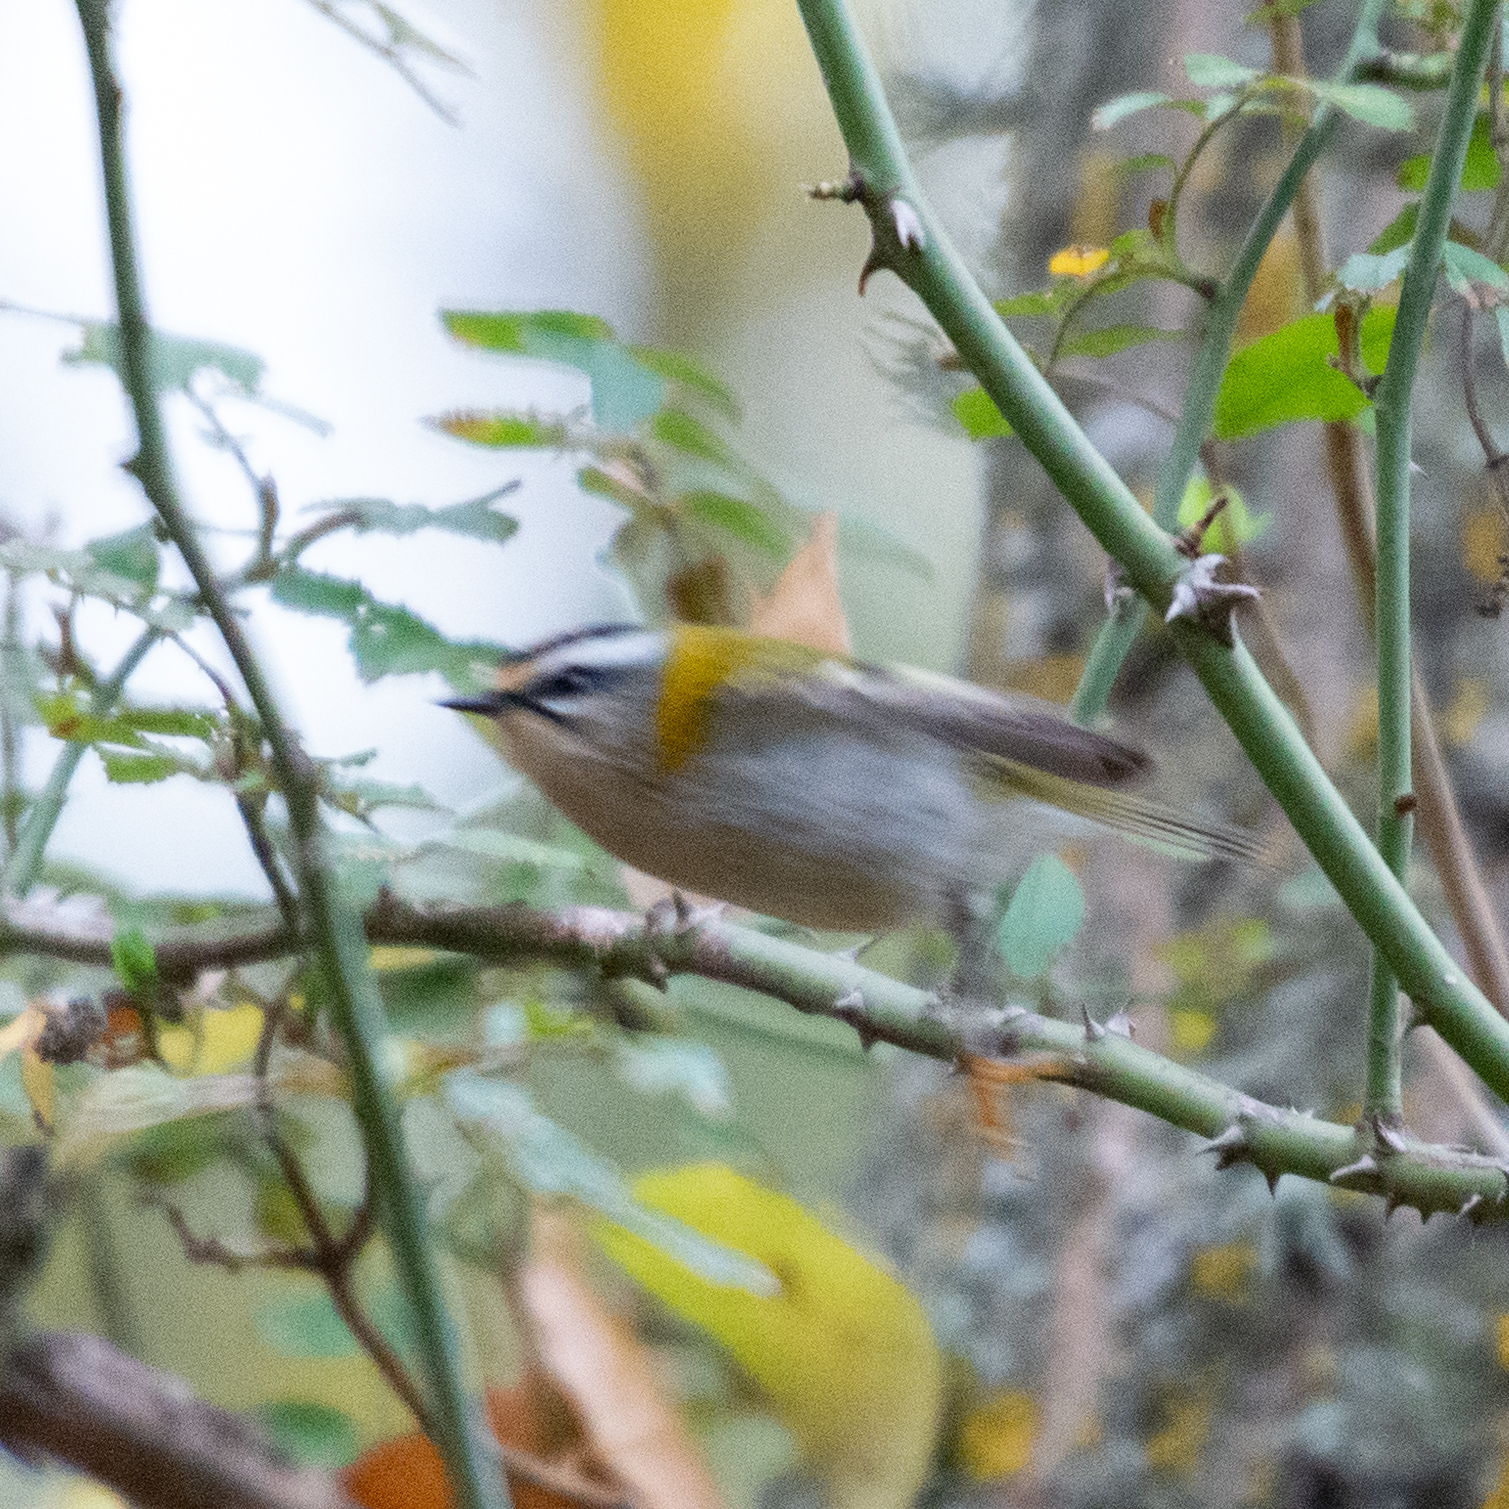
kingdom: Animalia
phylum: Chordata
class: Aves
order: Passeriformes
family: Regulidae
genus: Regulus
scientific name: Regulus ignicapilla
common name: Firecrest
